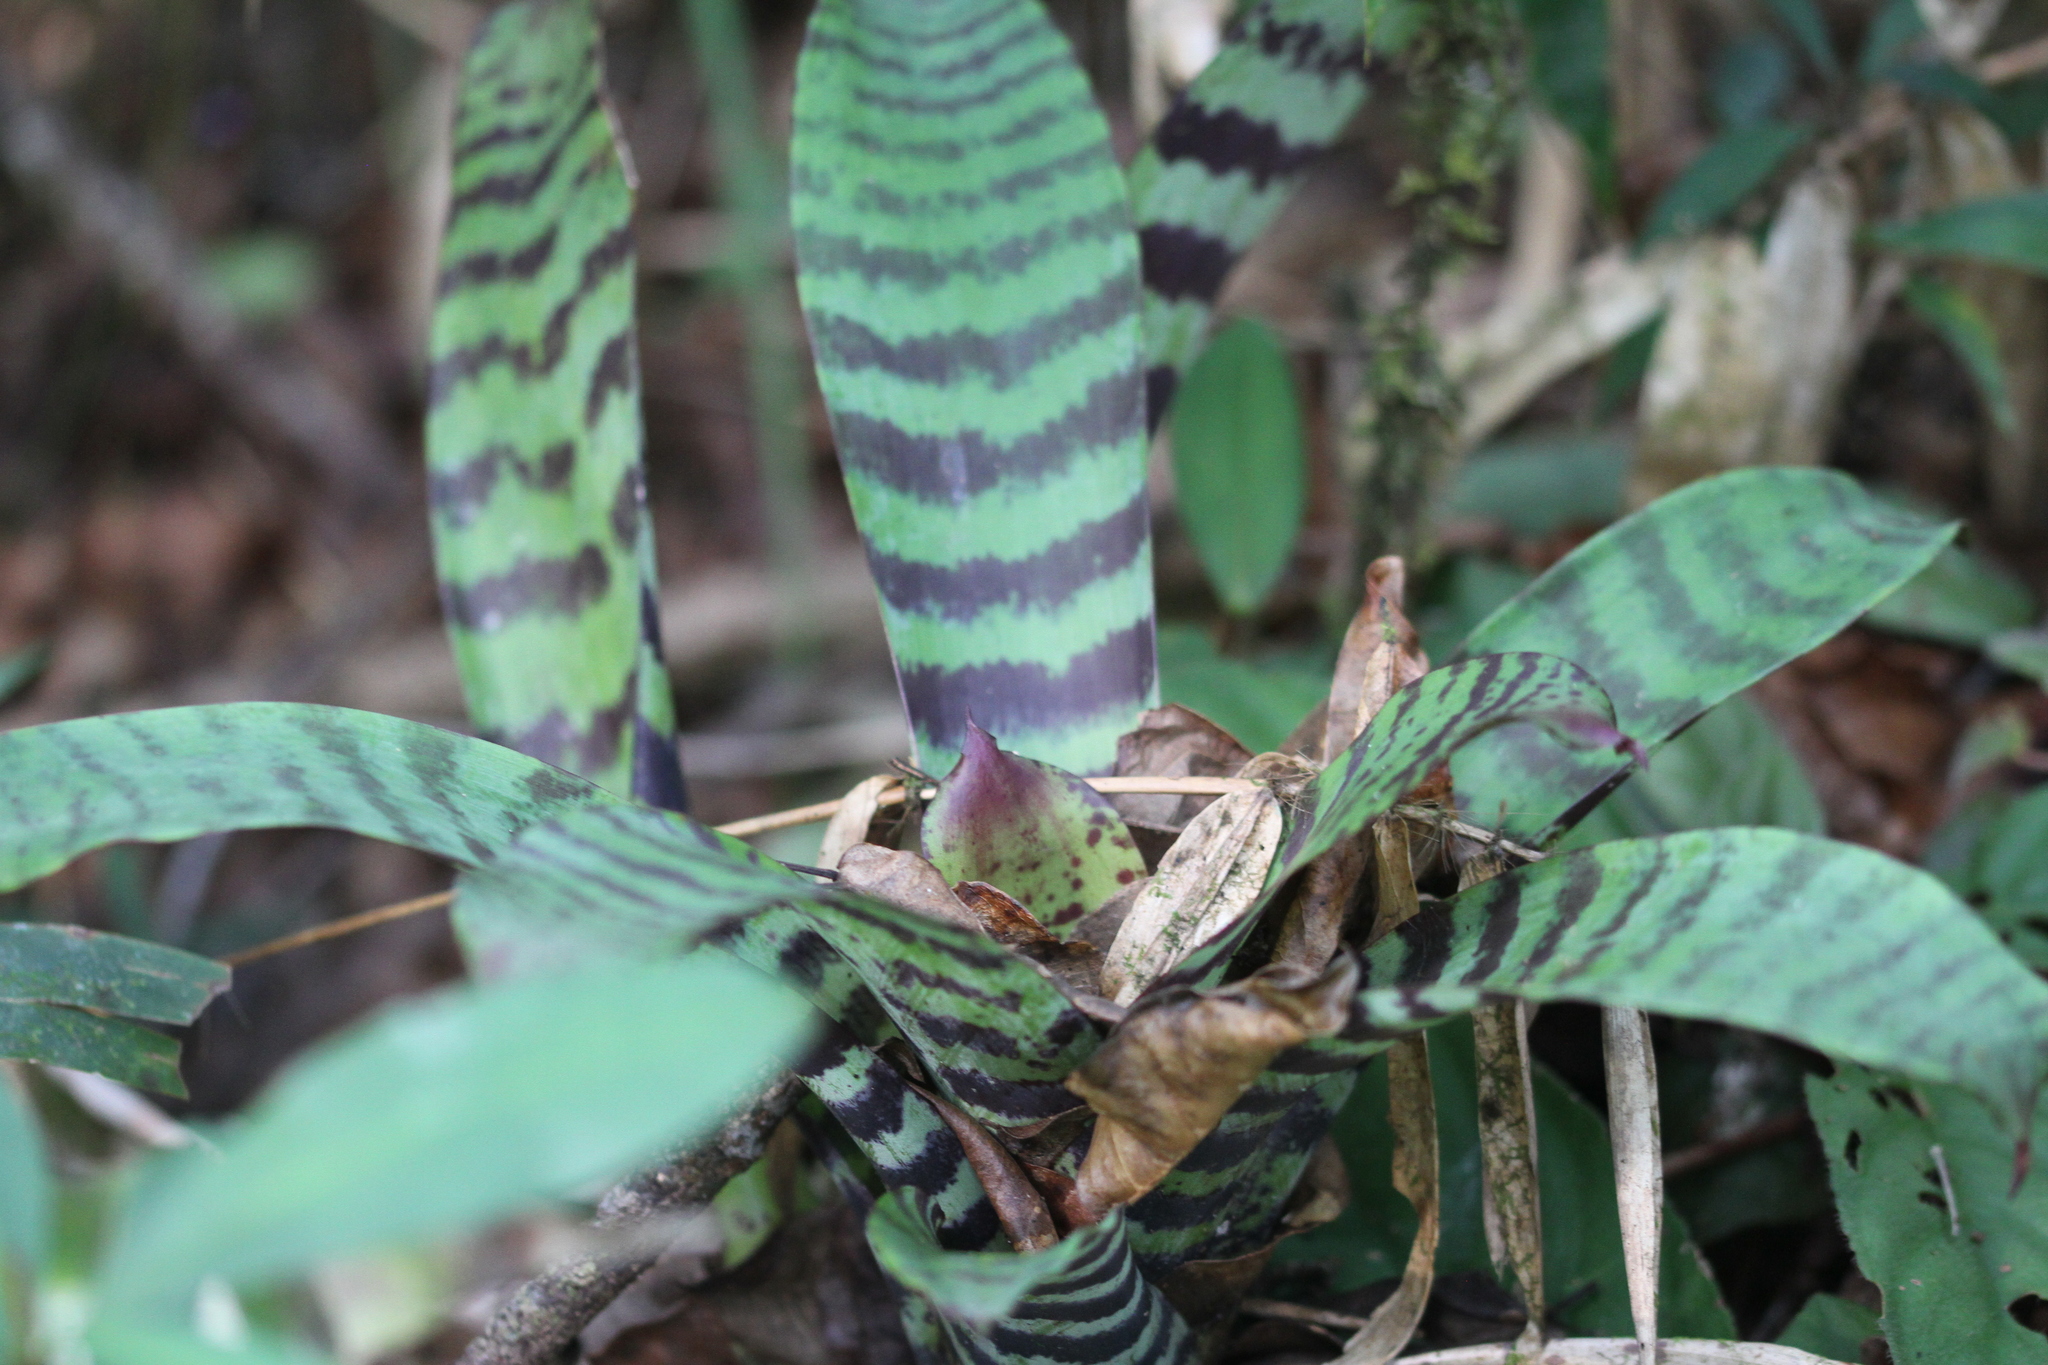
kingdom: Plantae
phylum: Tracheophyta
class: Liliopsida
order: Poales
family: Bromeliaceae
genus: Lutheria
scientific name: Lutheria splendens
